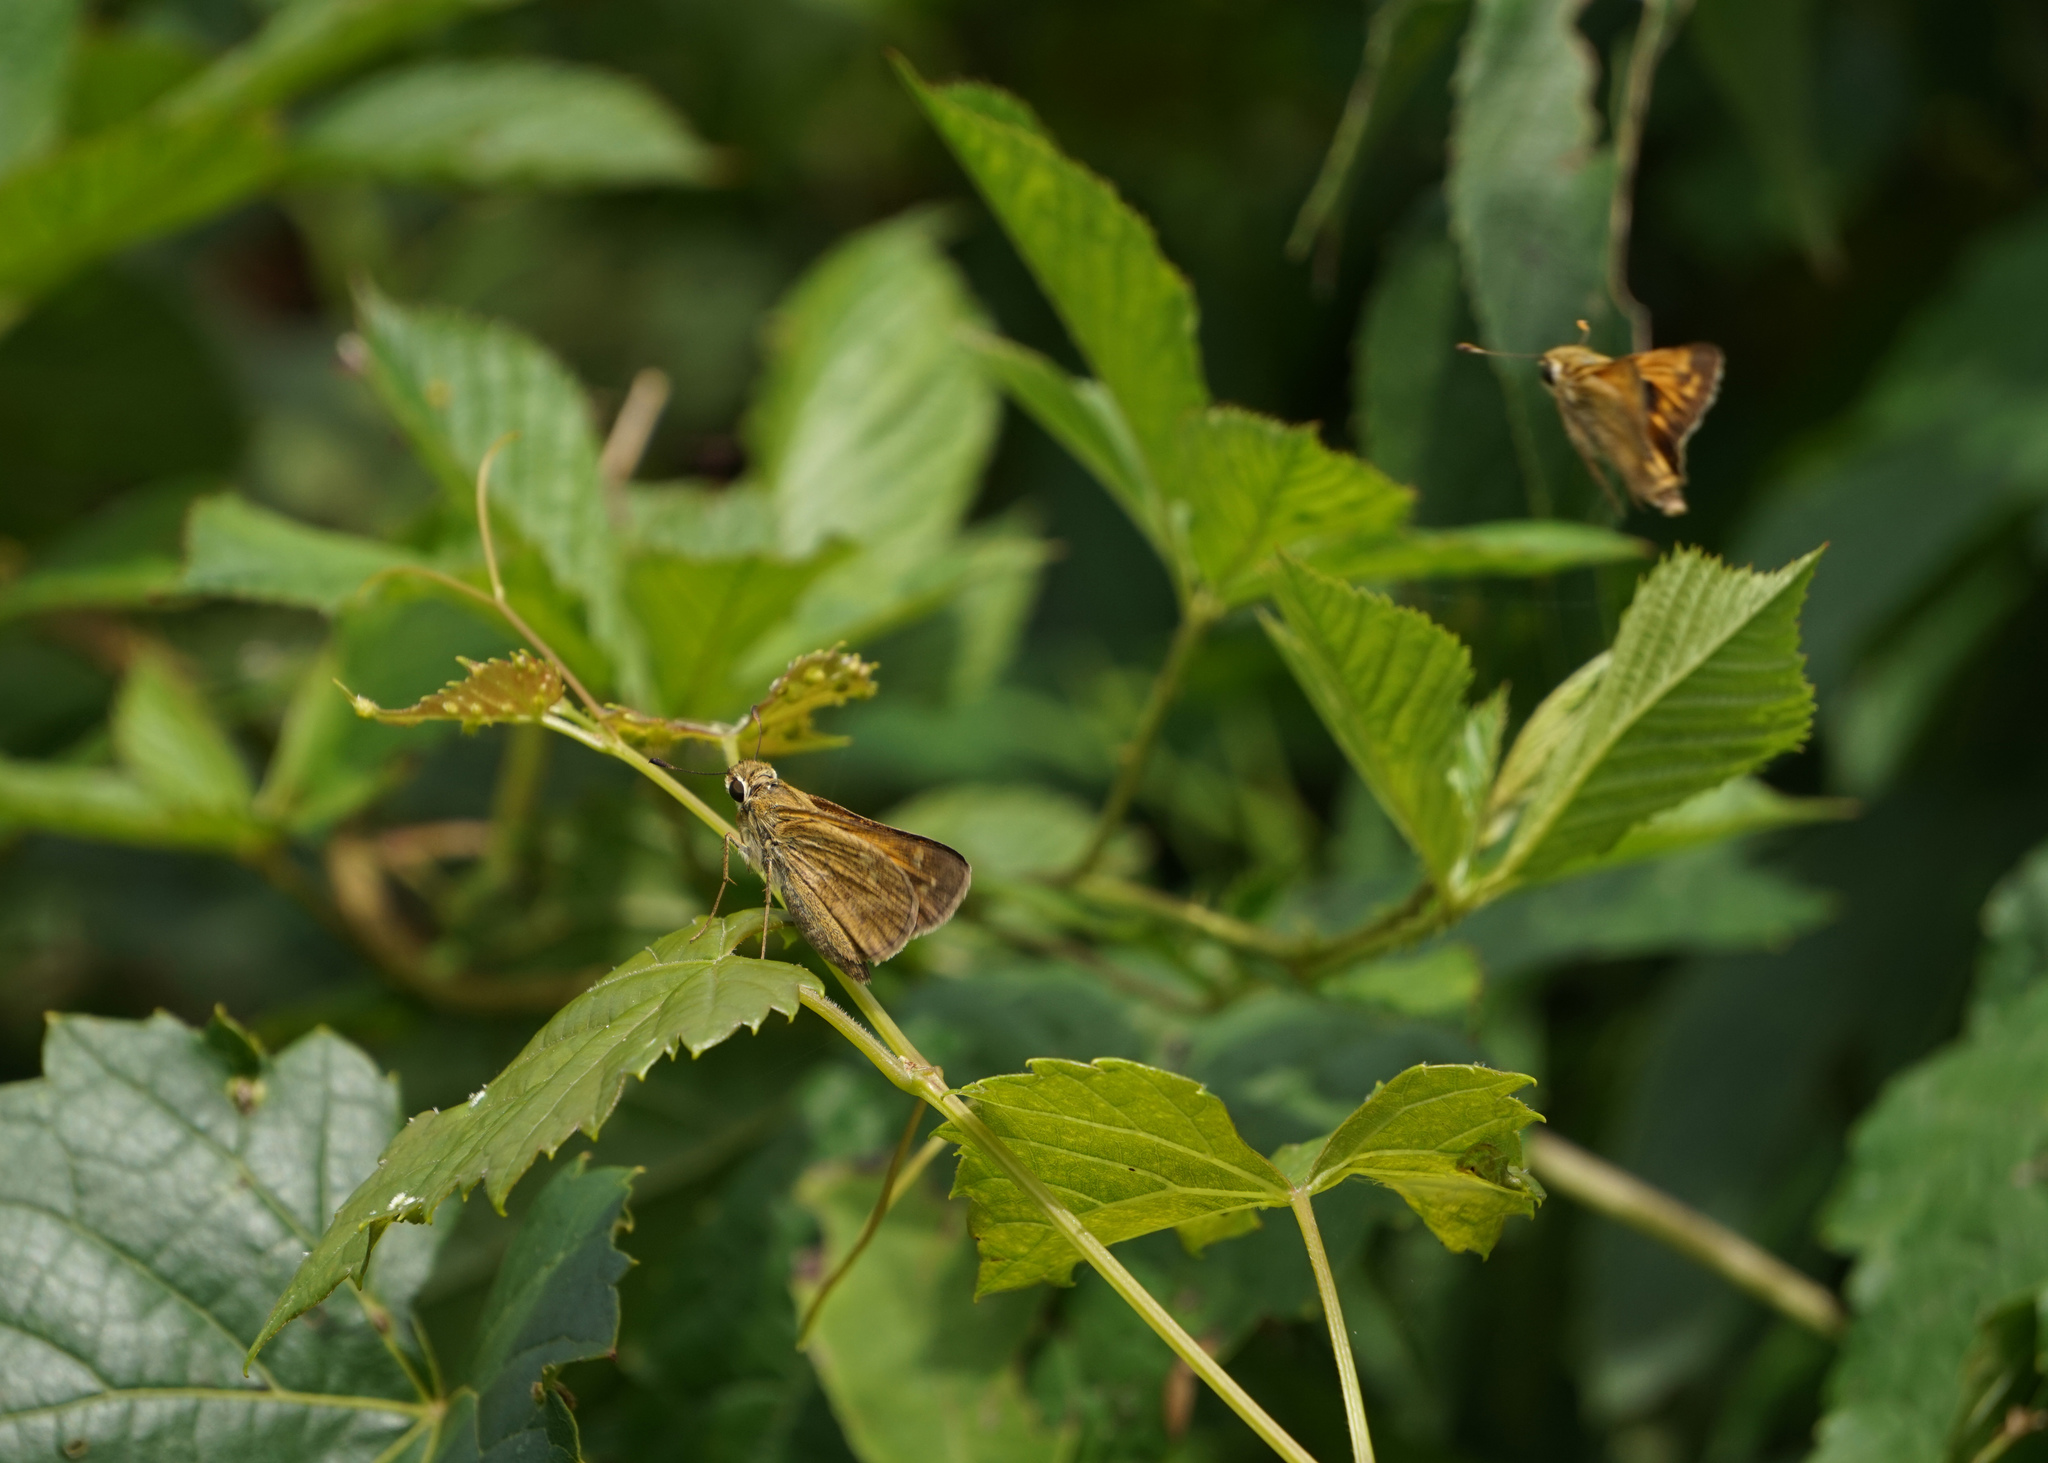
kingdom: Animalia
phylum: Arthropoda
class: Insecta
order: Lepidoptera
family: Hesperiidae
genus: Atalopedes
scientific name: Atalopedes
